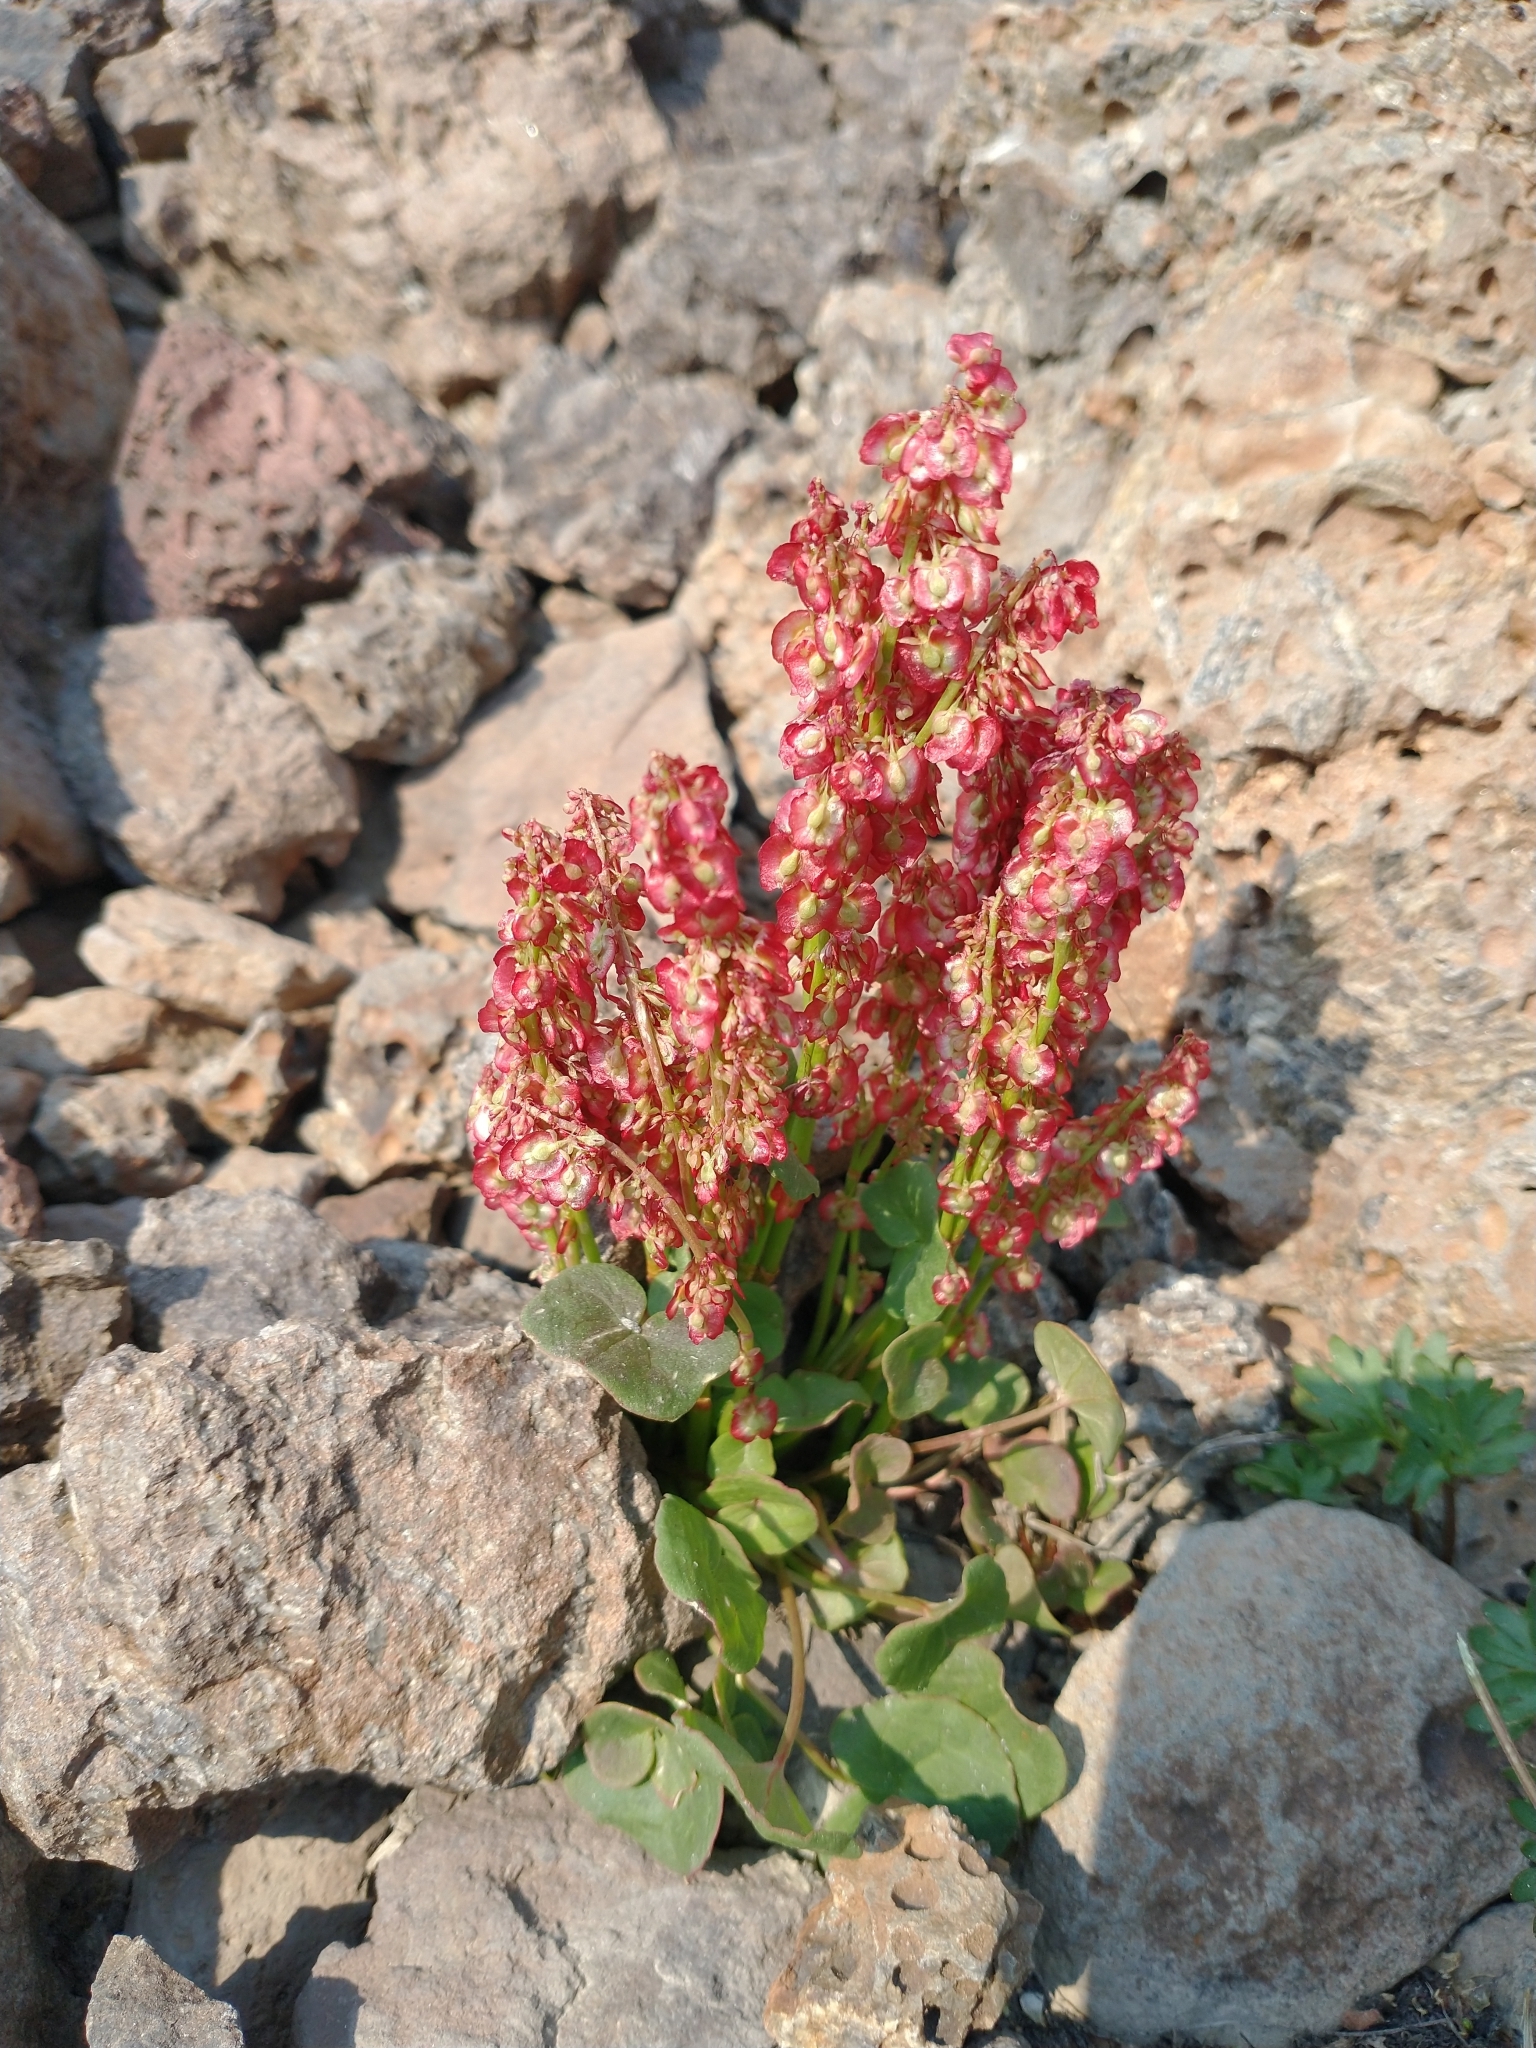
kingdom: Plantae
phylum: Tracheophyta
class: Magnoliopsida
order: Caryophyllales
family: Polygonaceae
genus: Oxyria
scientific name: Oxyria digyna
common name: Alpine mountain-sorrel
